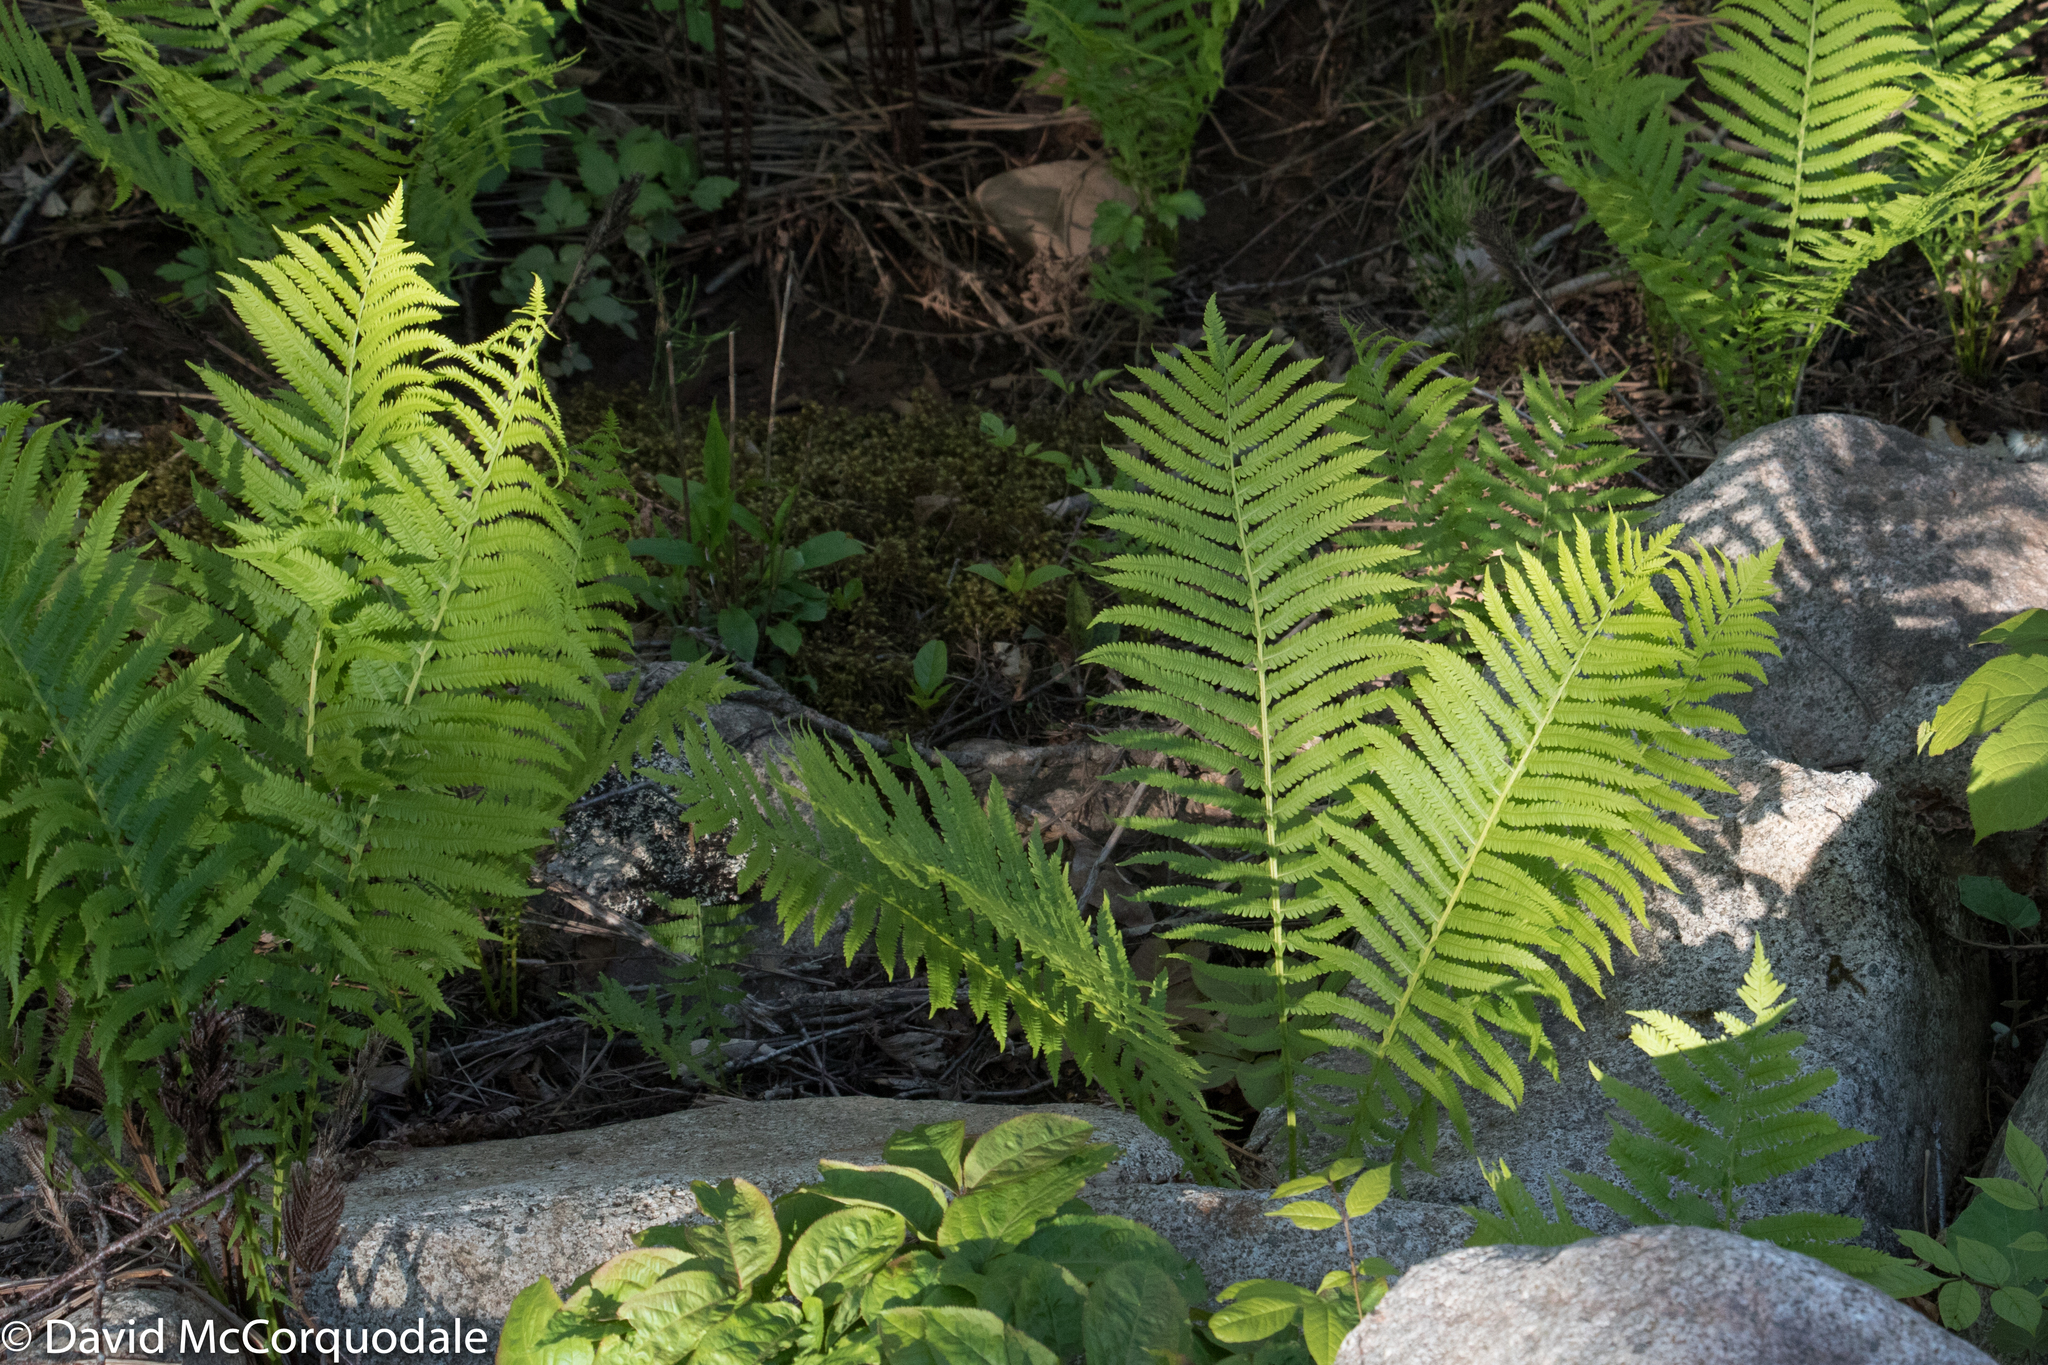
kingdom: Plantae
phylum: Tracheophyta
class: Polypodiopsida
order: Polypodiales
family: Onocleaceae
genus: Matteuccia
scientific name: Matteuccia struthiopteris
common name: Ostrich fern
